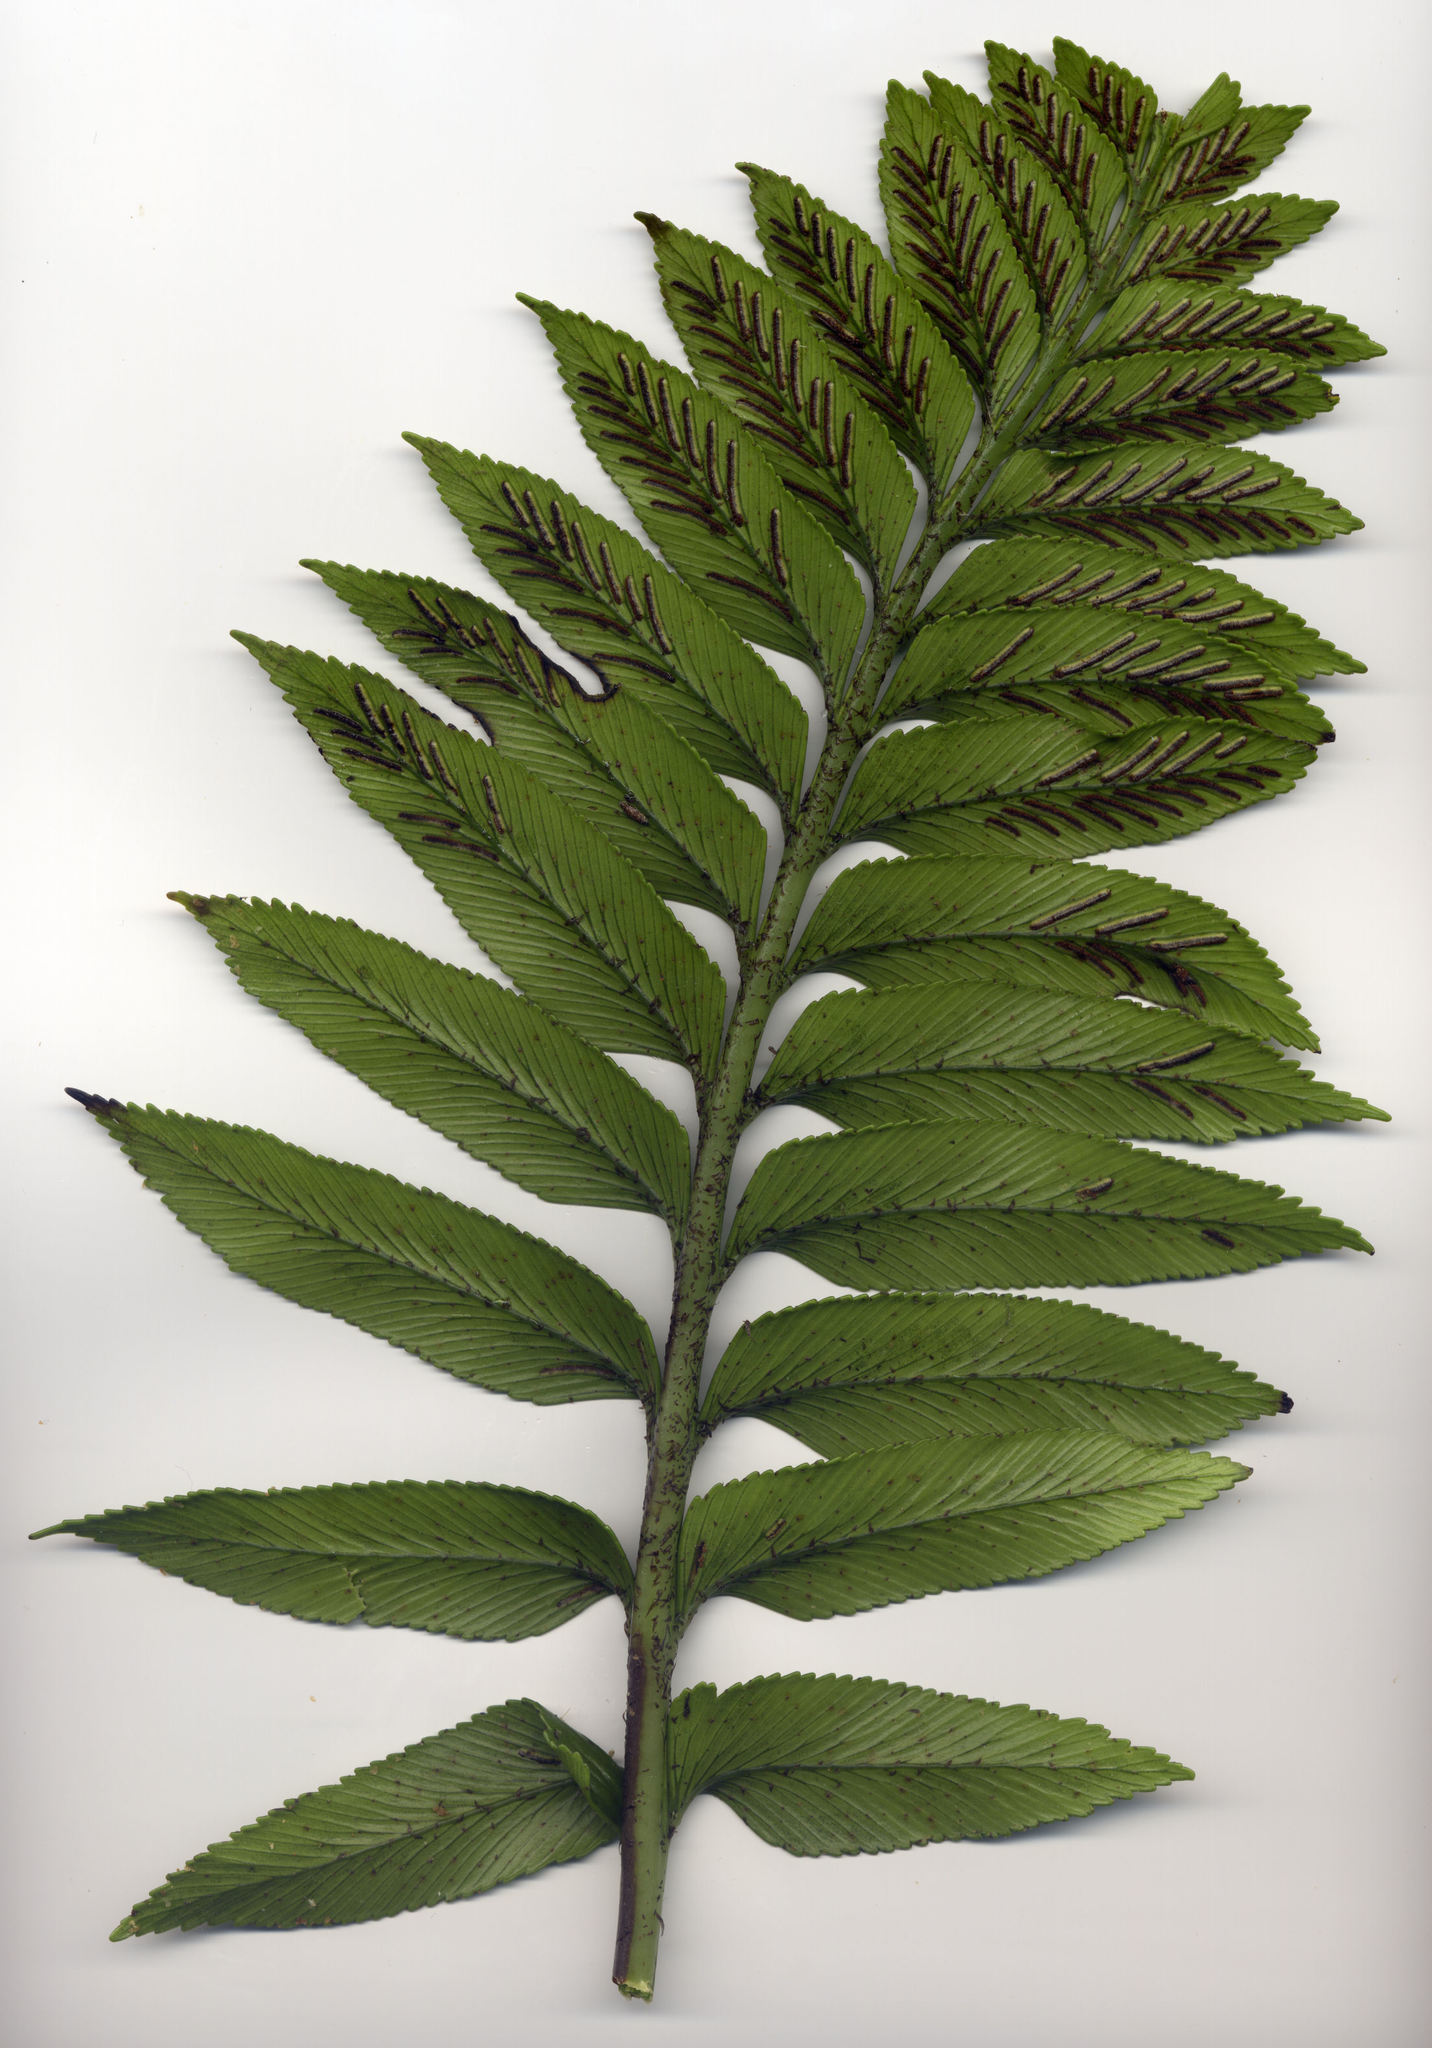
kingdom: Plantae
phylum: Tracheophyta
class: Polypodiopsida
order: Polypodiales
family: Aspleniaceae
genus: Asplenium
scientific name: Asplenium obtusatum
